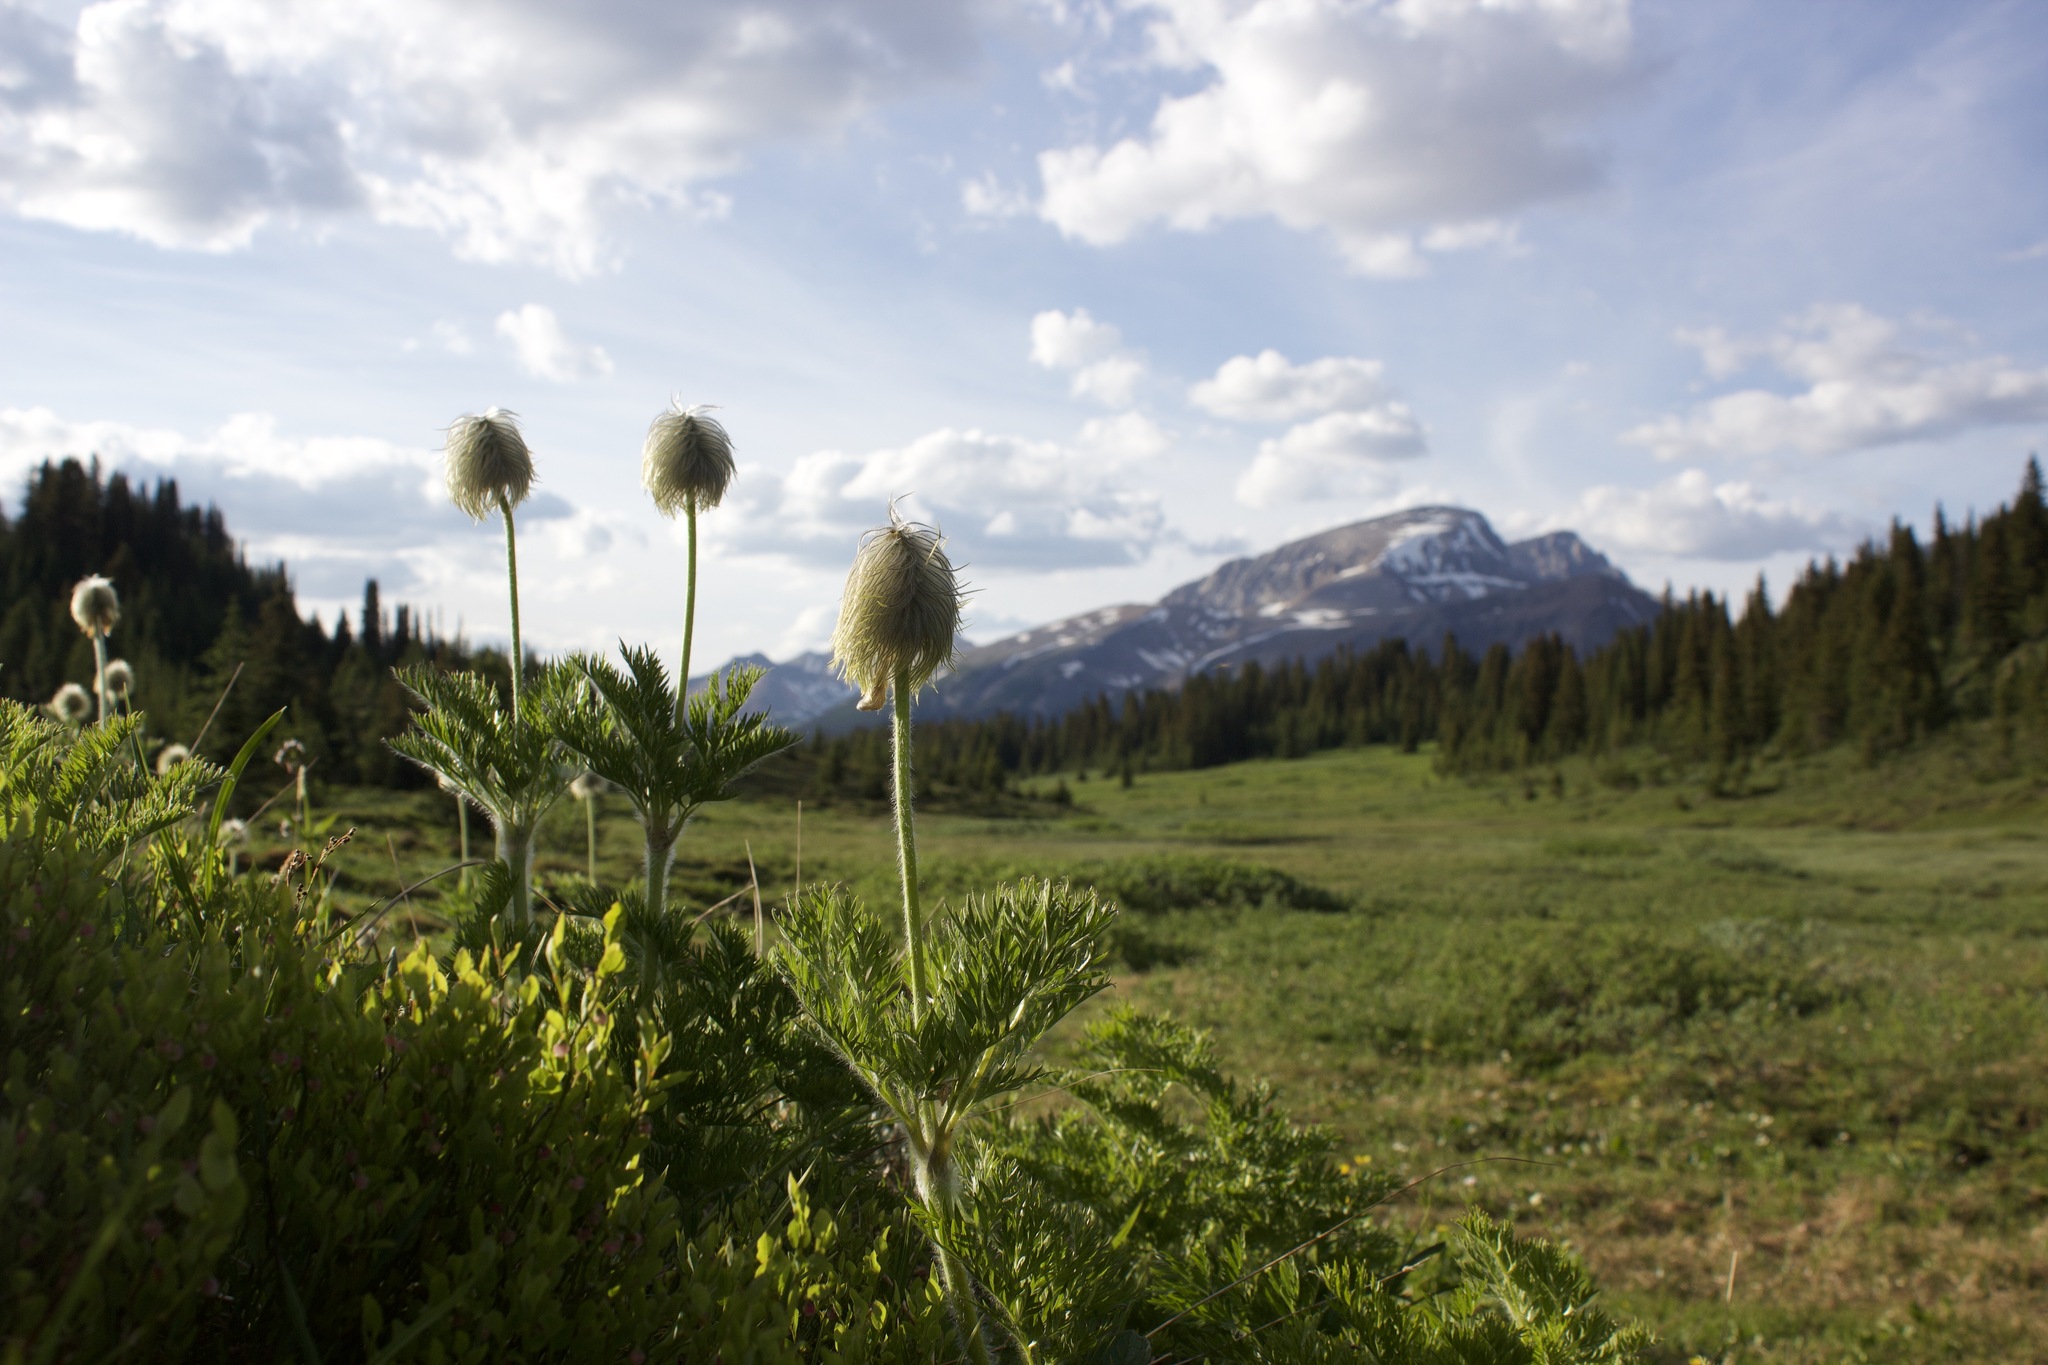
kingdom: Plantae
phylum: Tracheophyta
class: Magnoliopsida
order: Ranunculales
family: Ranunculaceae
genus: Pulsatilla
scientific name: Pulsatilla occidentalis
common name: Mountain pasqueflower
